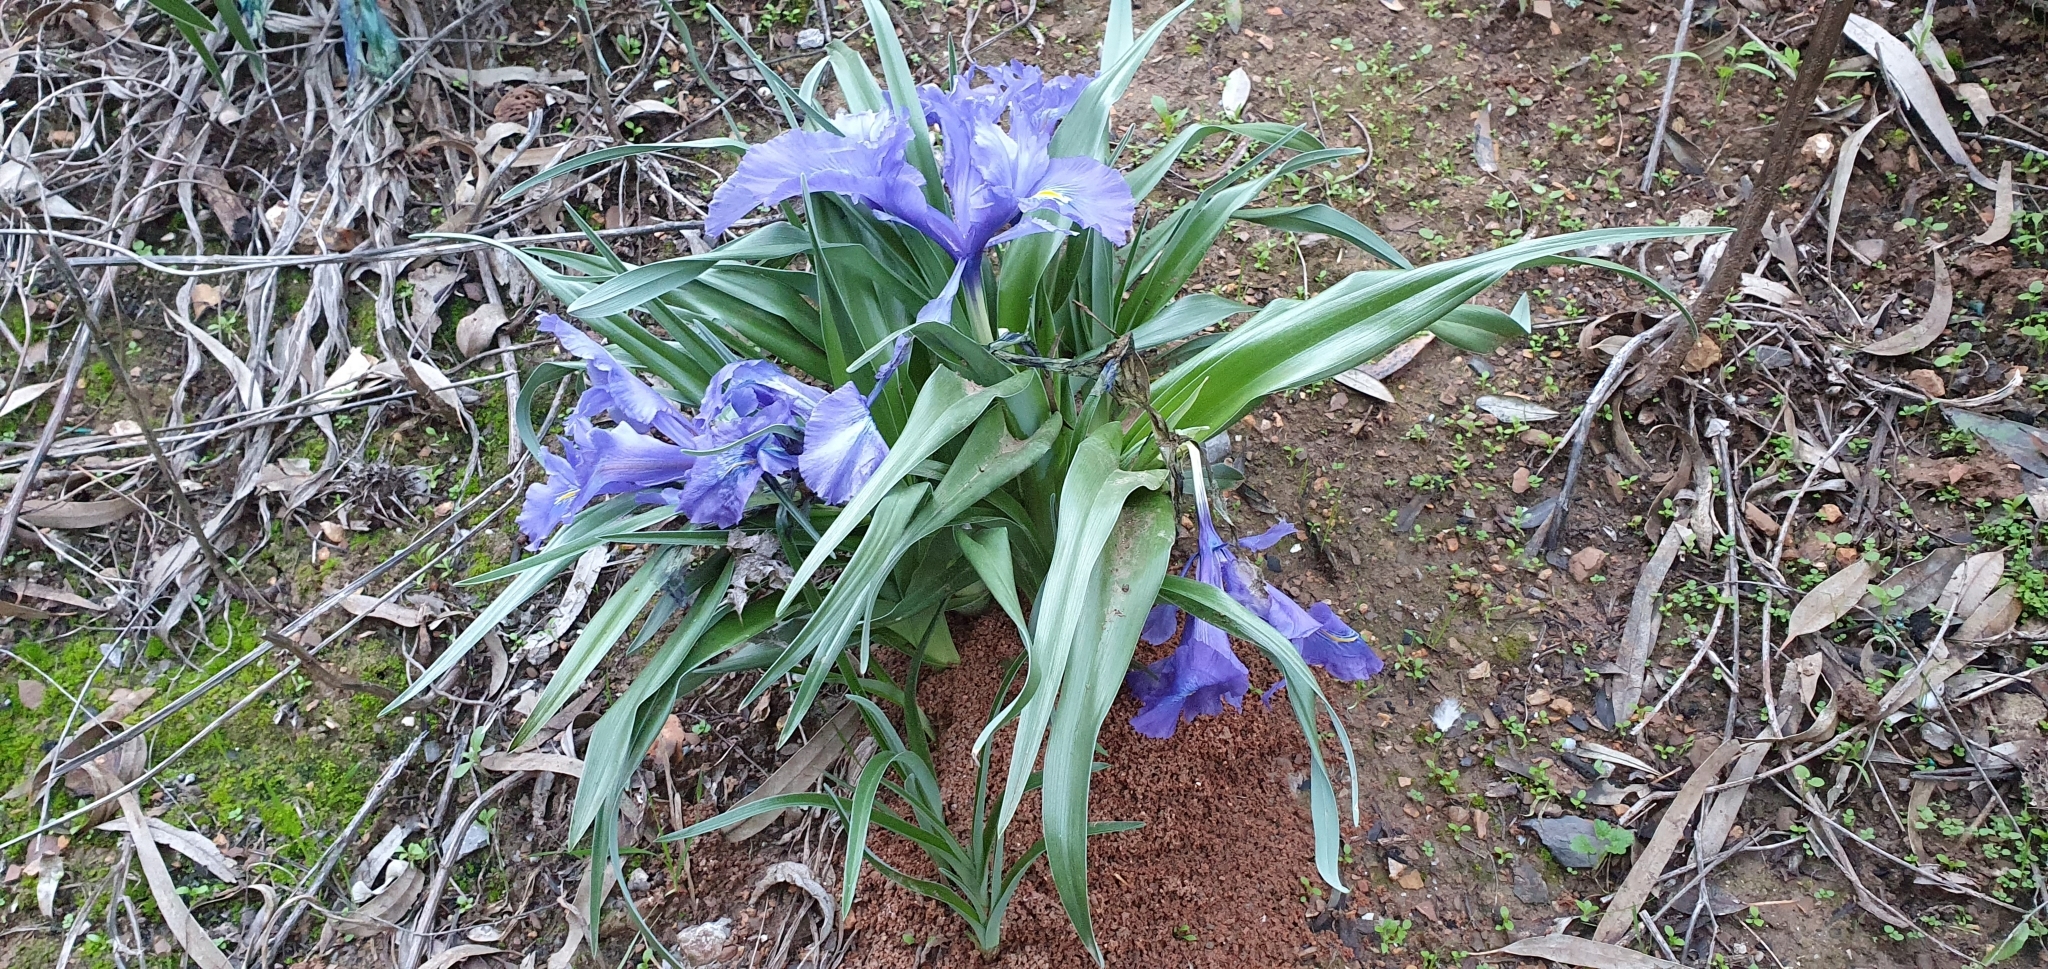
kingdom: Plantae
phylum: Tracheophyta
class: Liliopsida
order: Asparagales
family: Iridaceae
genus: Iris
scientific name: Iris planifolia
